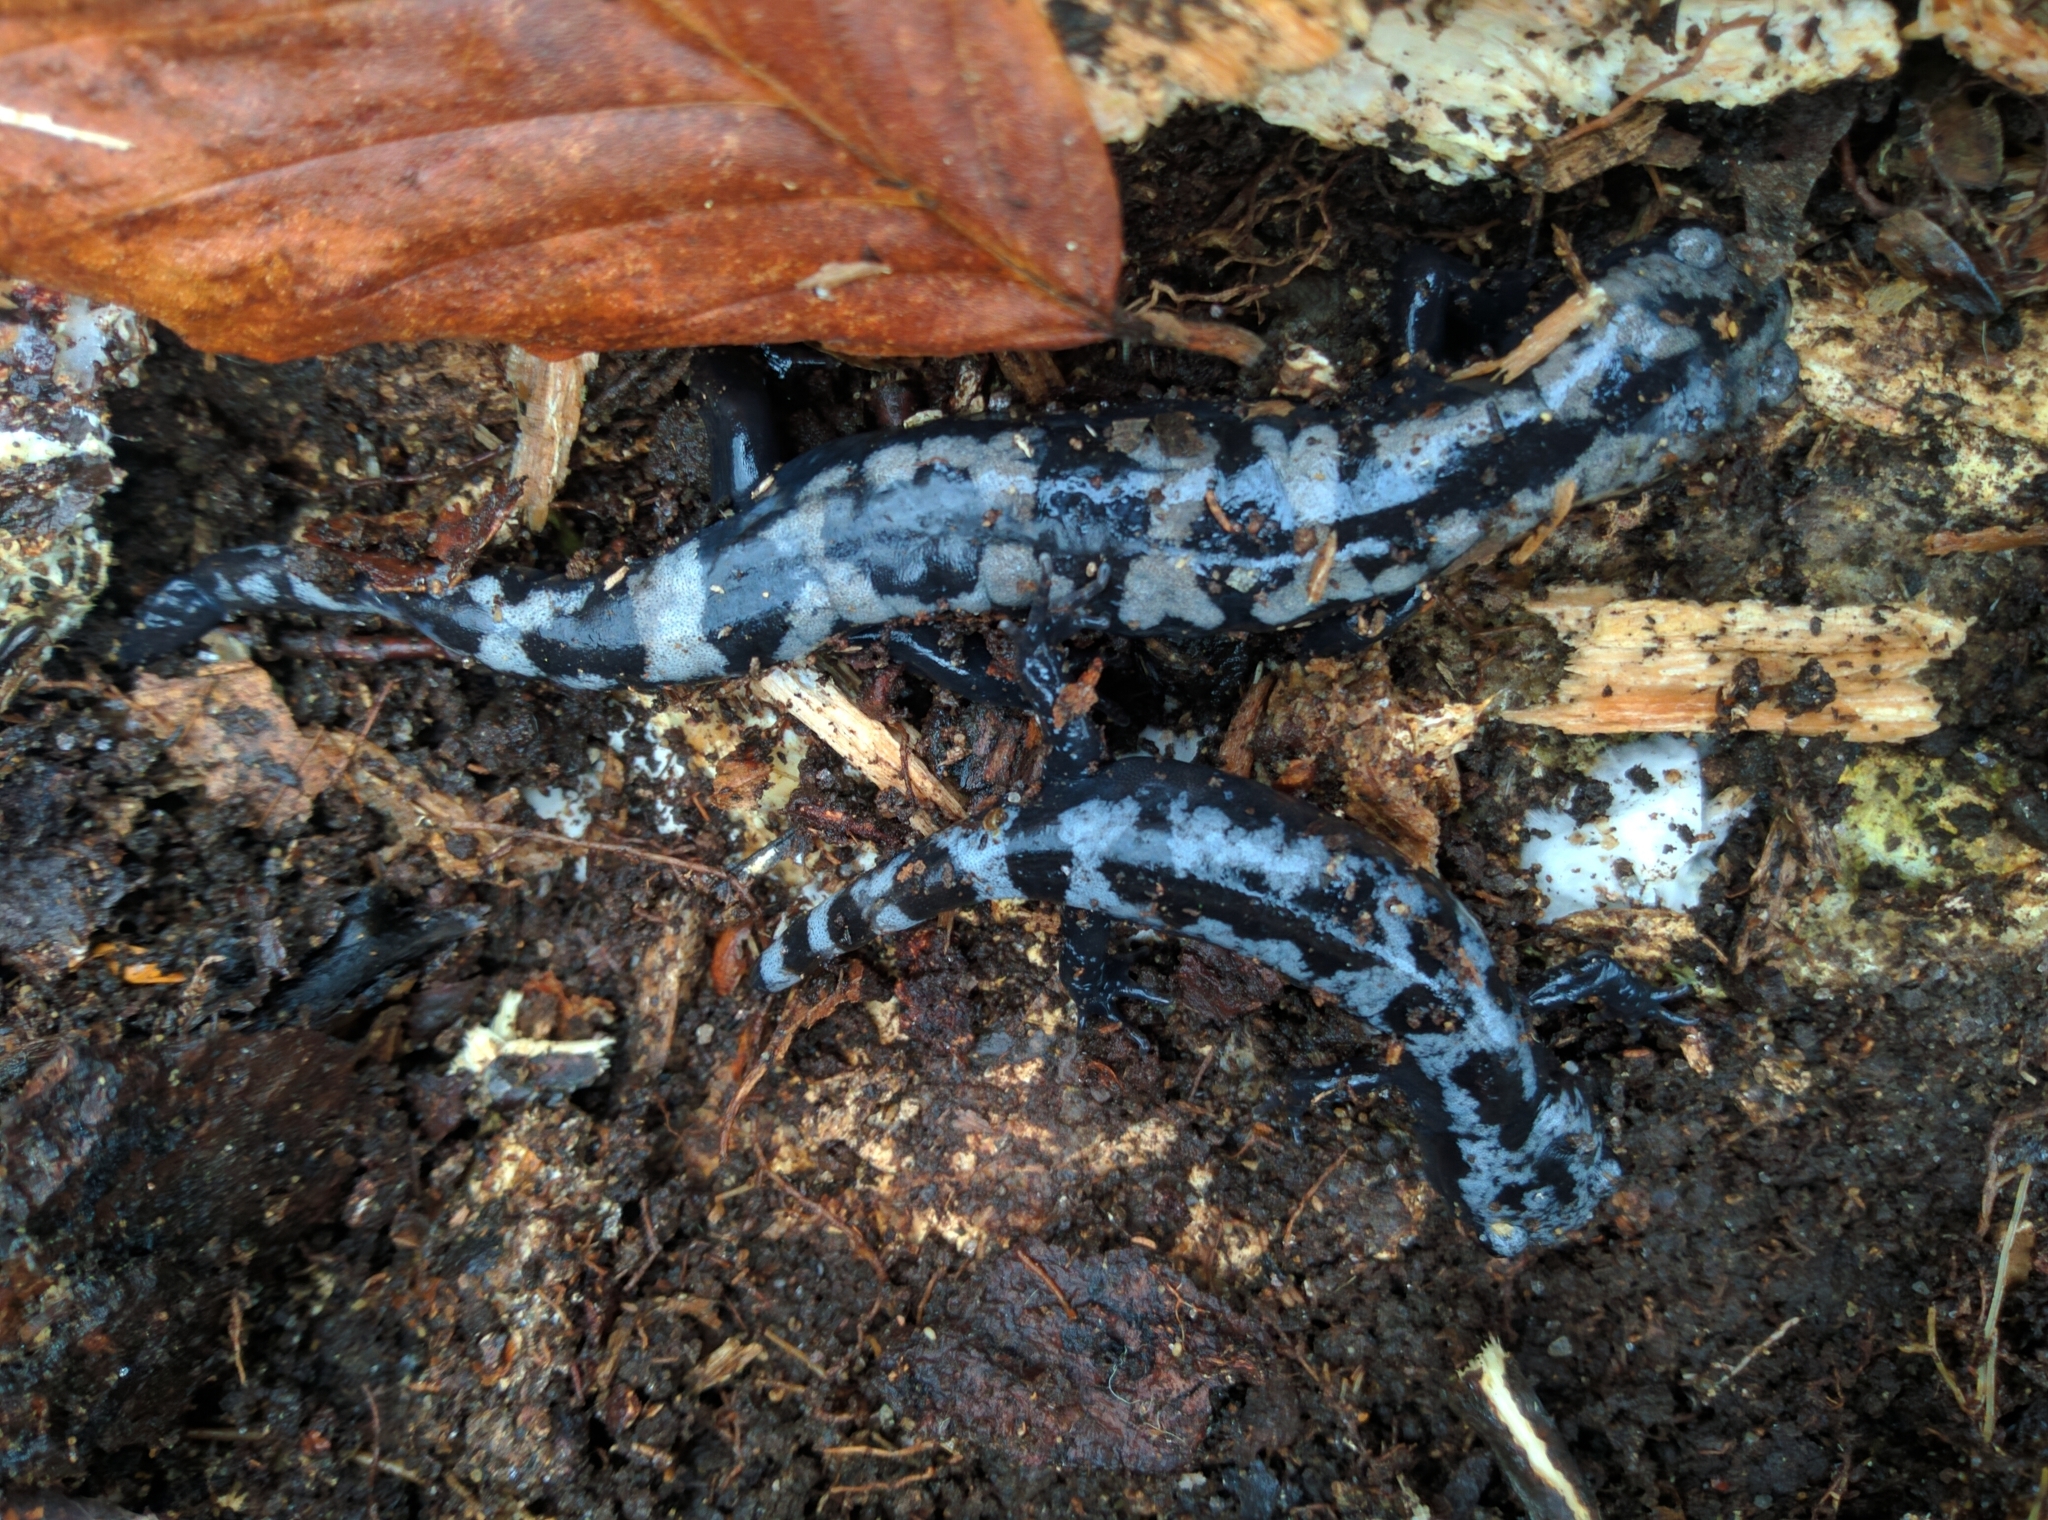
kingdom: Animalia
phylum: Chordata
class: Amphibia
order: Caudata
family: Ambystomatidae
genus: Ambystoma
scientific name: Ambystoma opacum
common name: Marbled salamander
